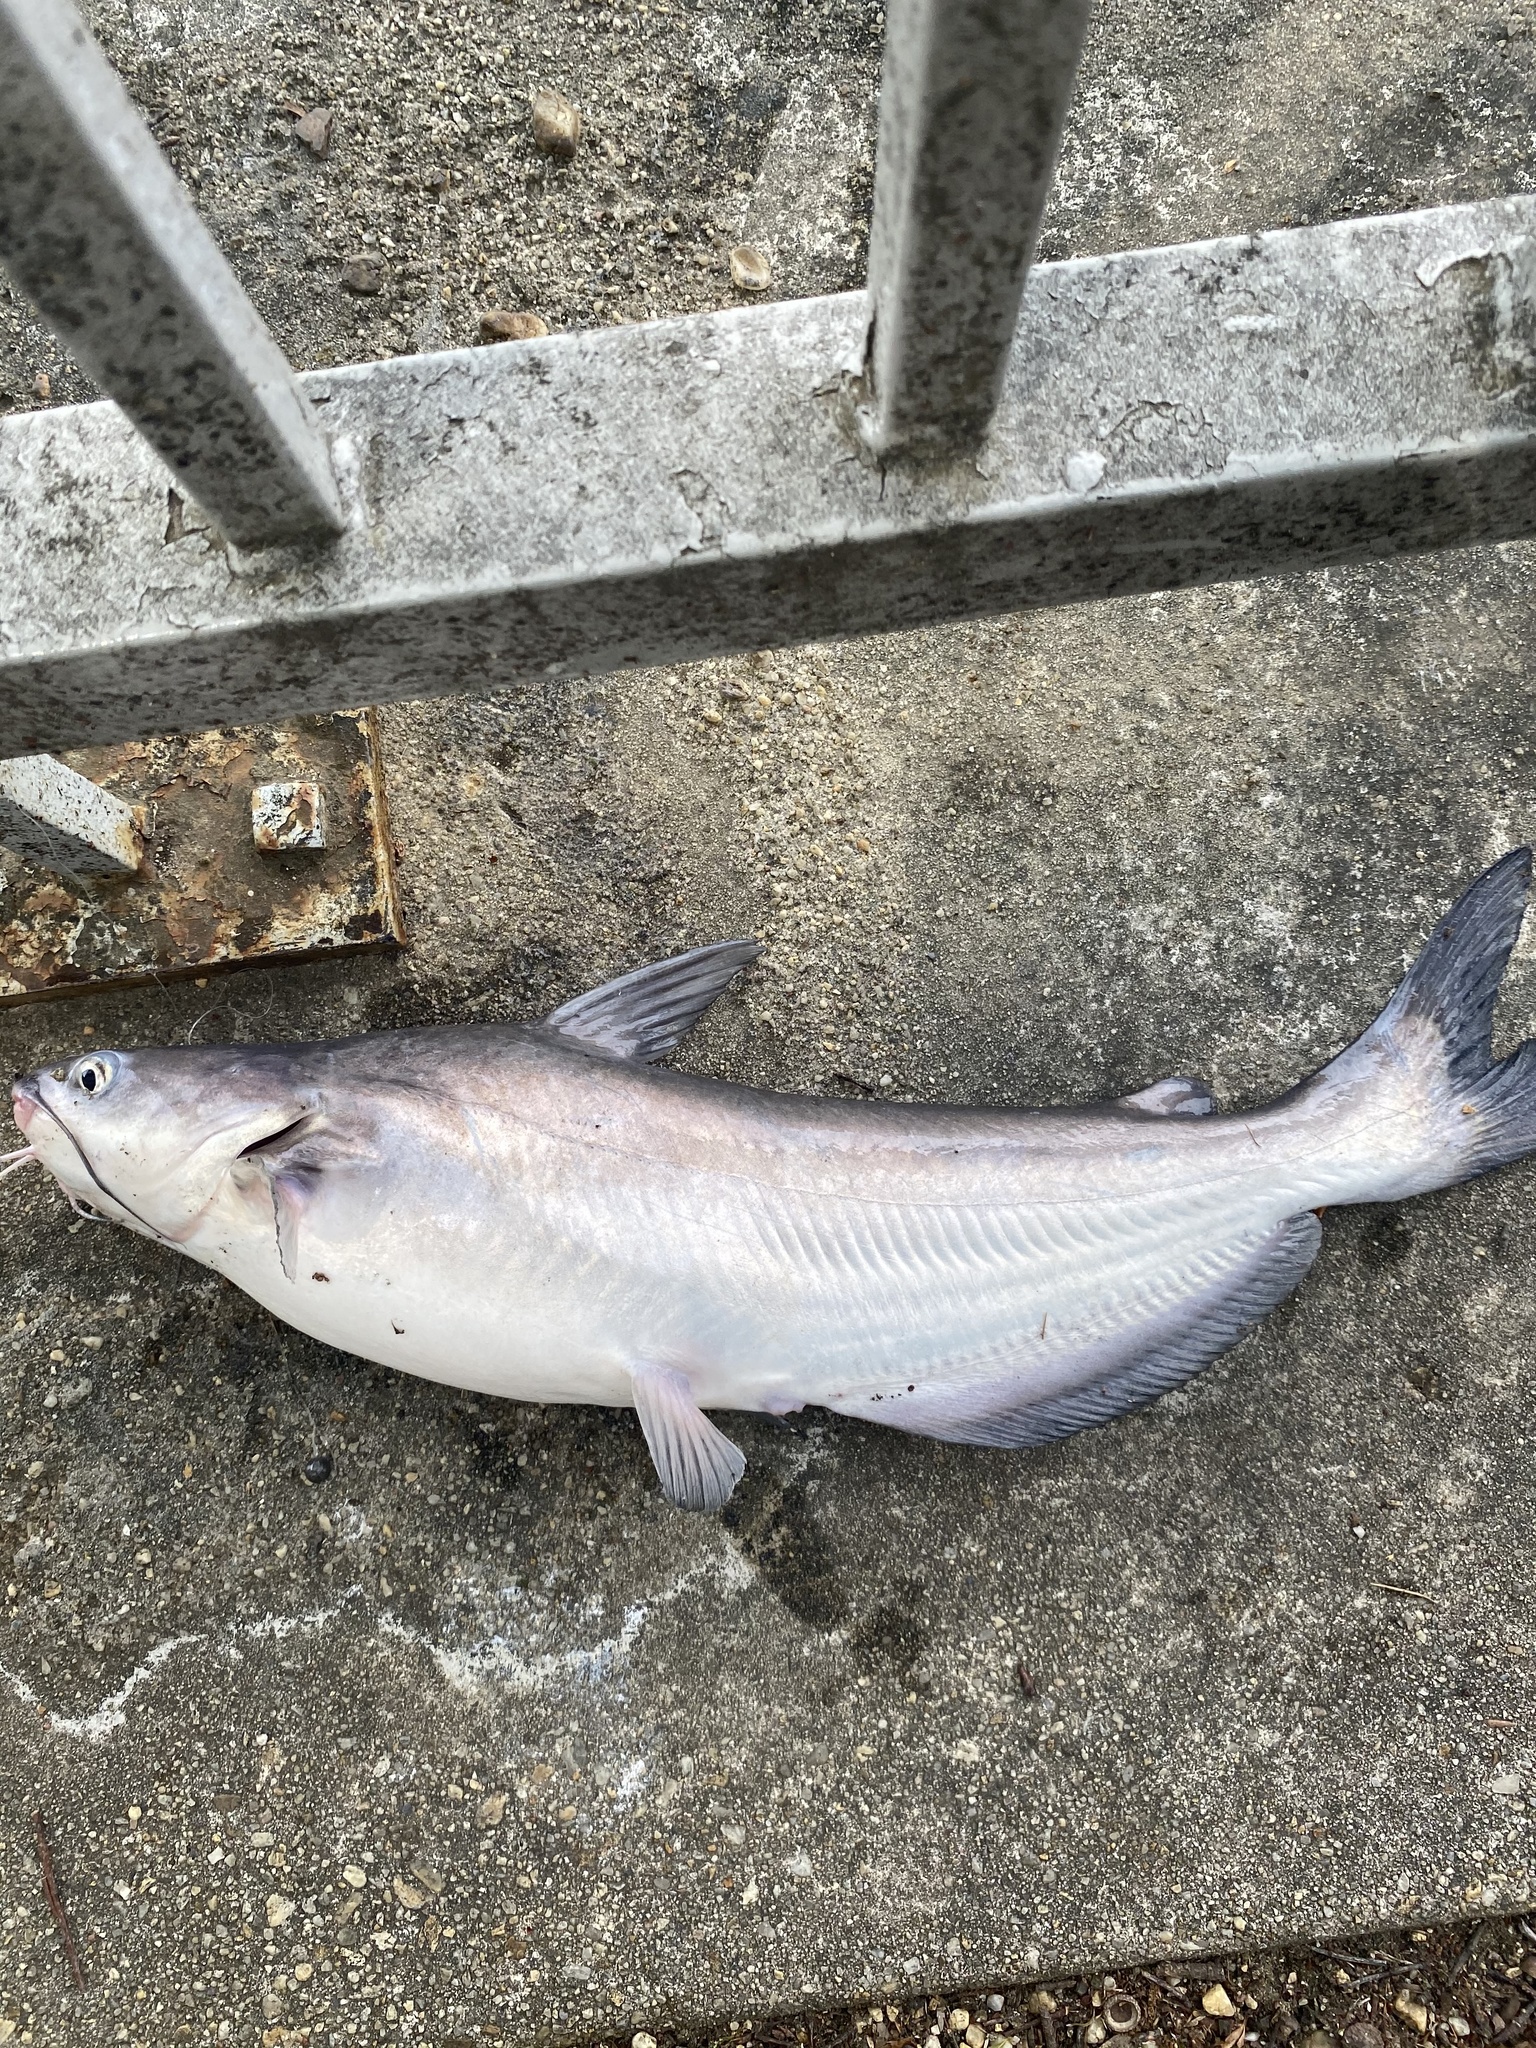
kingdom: Animalia
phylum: Chordata
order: Siluriformes
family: Ictaluridae
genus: Ictalurus
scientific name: Ictalurus furcatus
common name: Blue catfish
